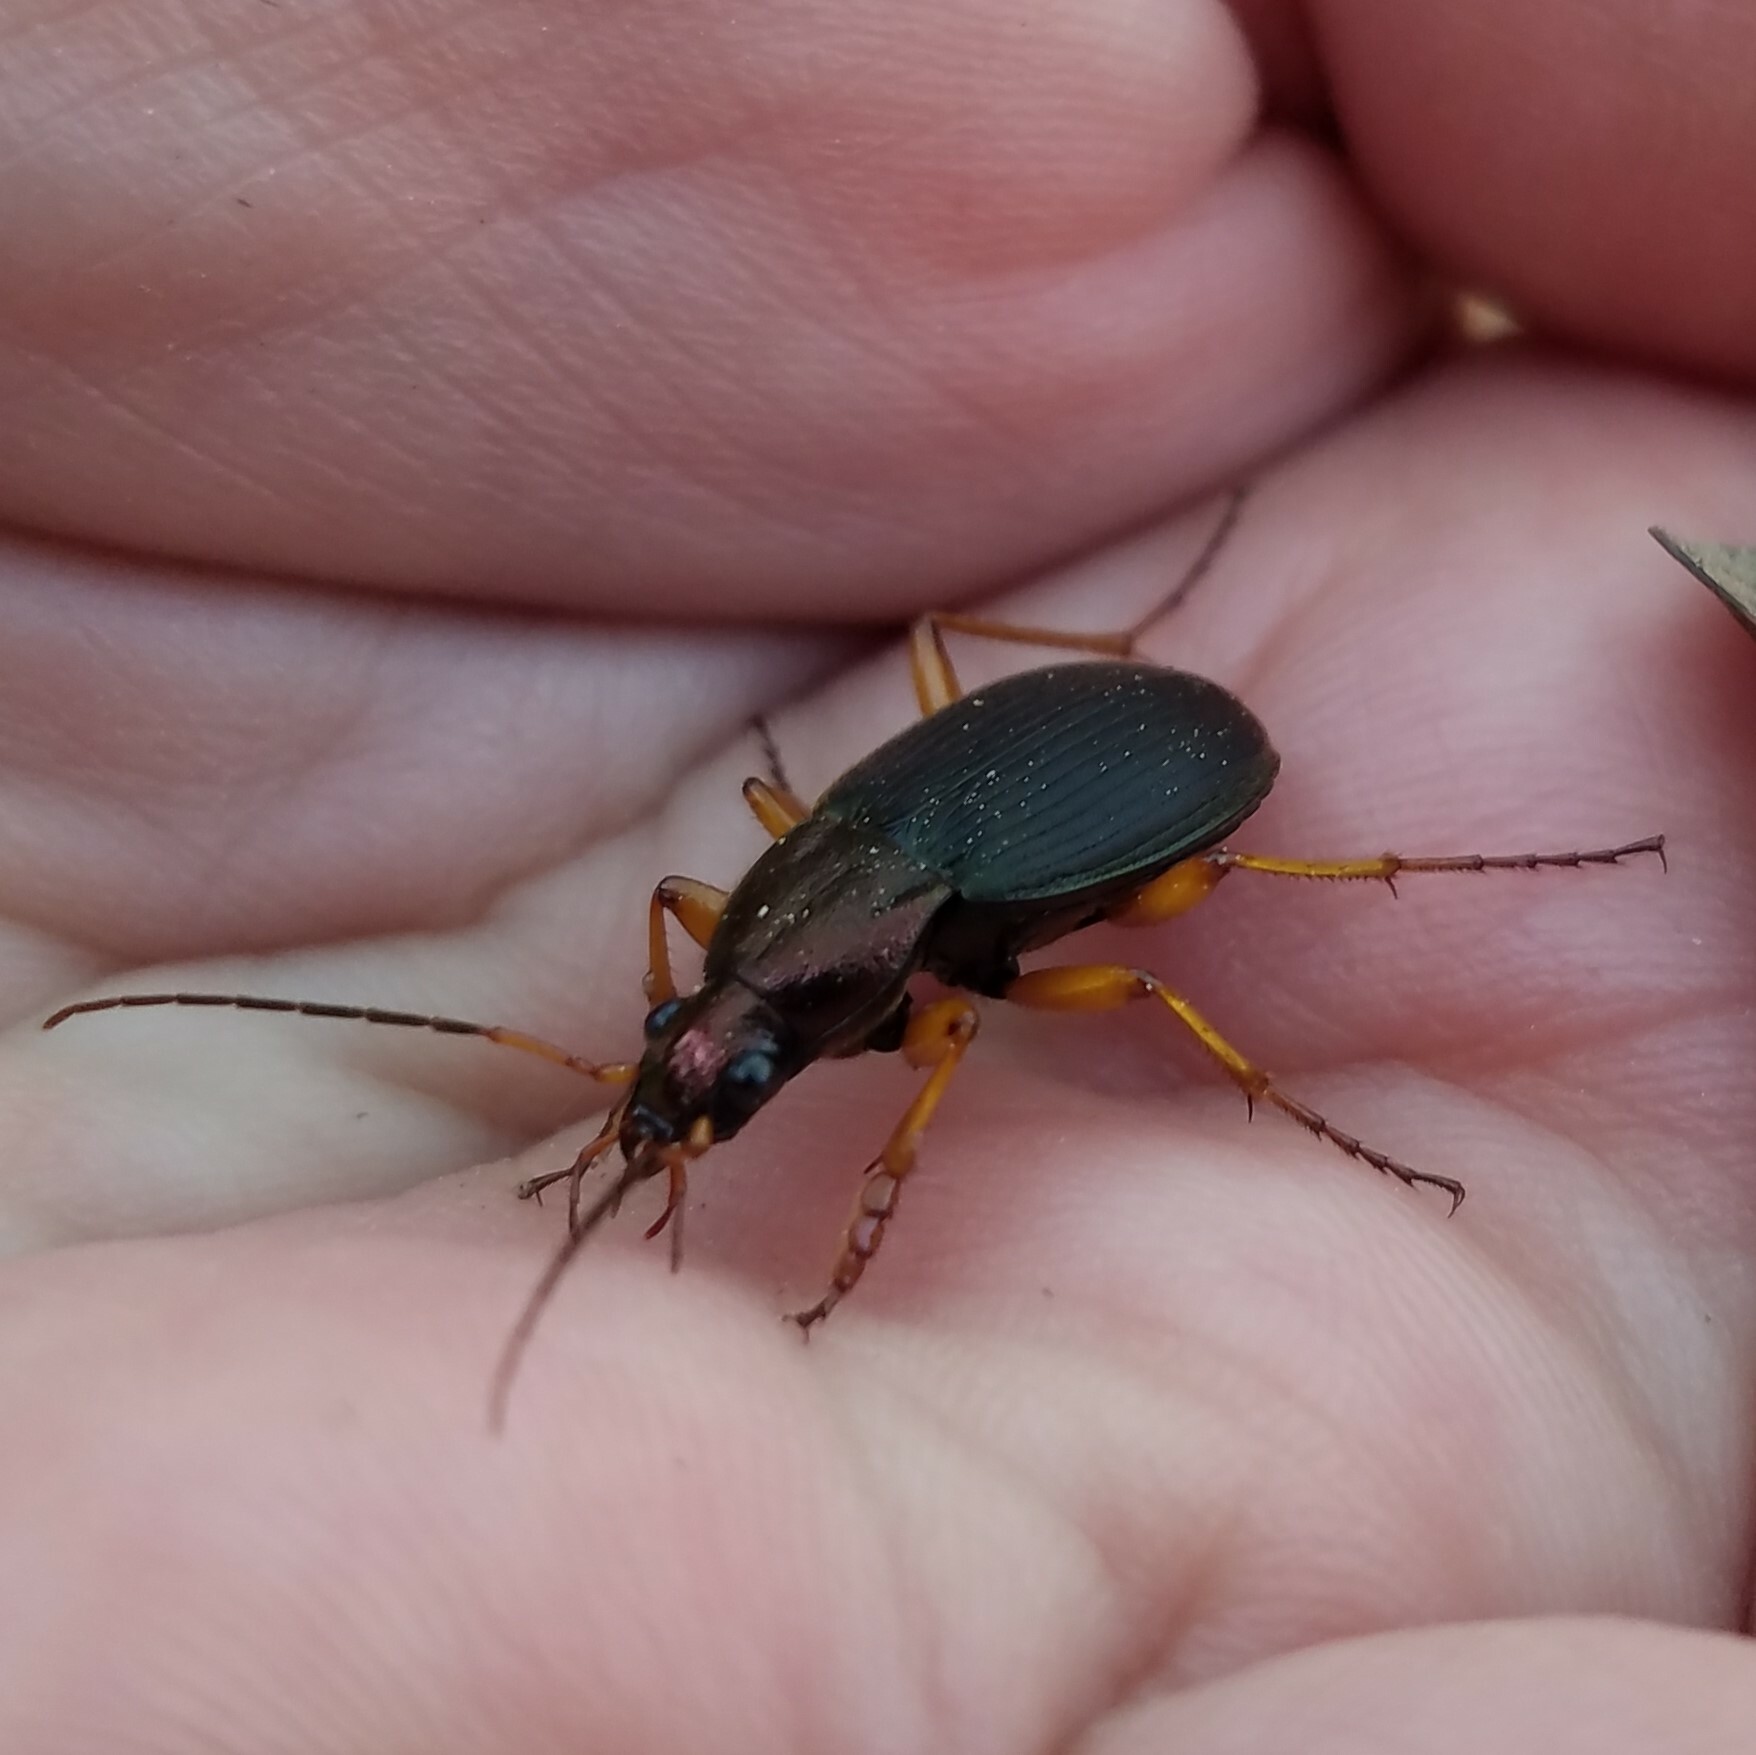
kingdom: Animalia
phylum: Arthropoda
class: Insecta
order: Coleoptera
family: Carabidae
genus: Chlaenius
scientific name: Chlaenius aestivus
